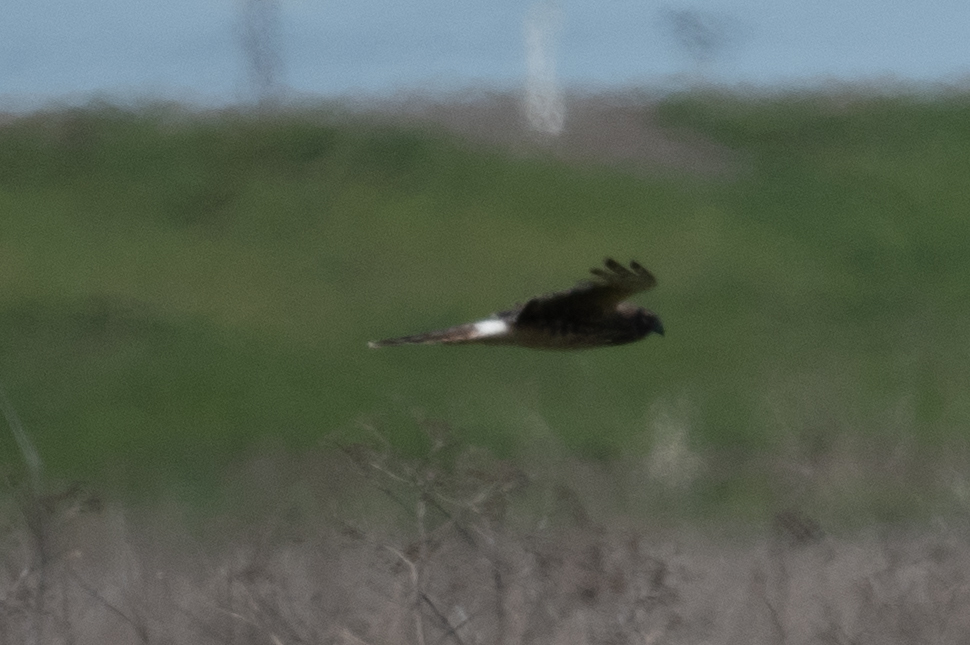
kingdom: Animalia
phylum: Chordata
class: Aves
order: Accipitriformes
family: Accipitridae
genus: Circus
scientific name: Circus cyaneus
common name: Hen harrier
